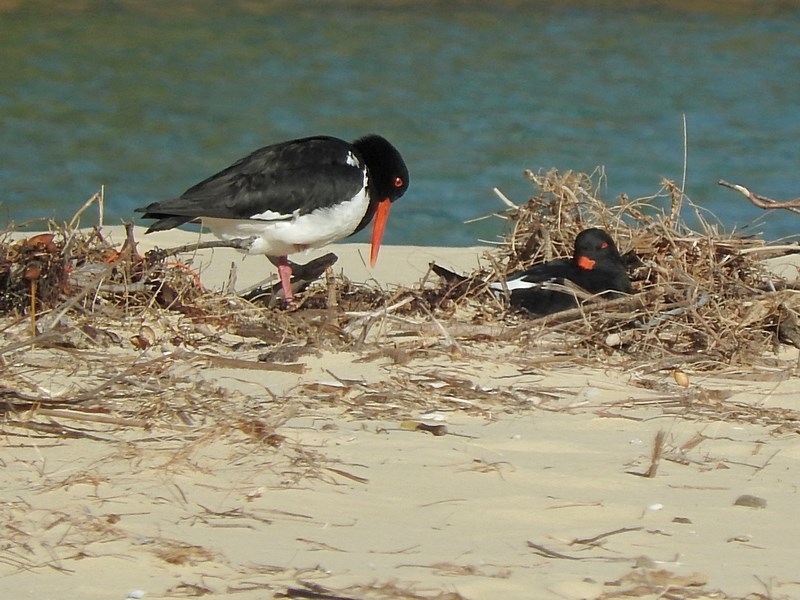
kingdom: Animalia
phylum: Chordata
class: Aves
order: Charadriiformes
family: Haematopodidae
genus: Haematopus
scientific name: Haematopus longirostris
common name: Pied oystercatcher
